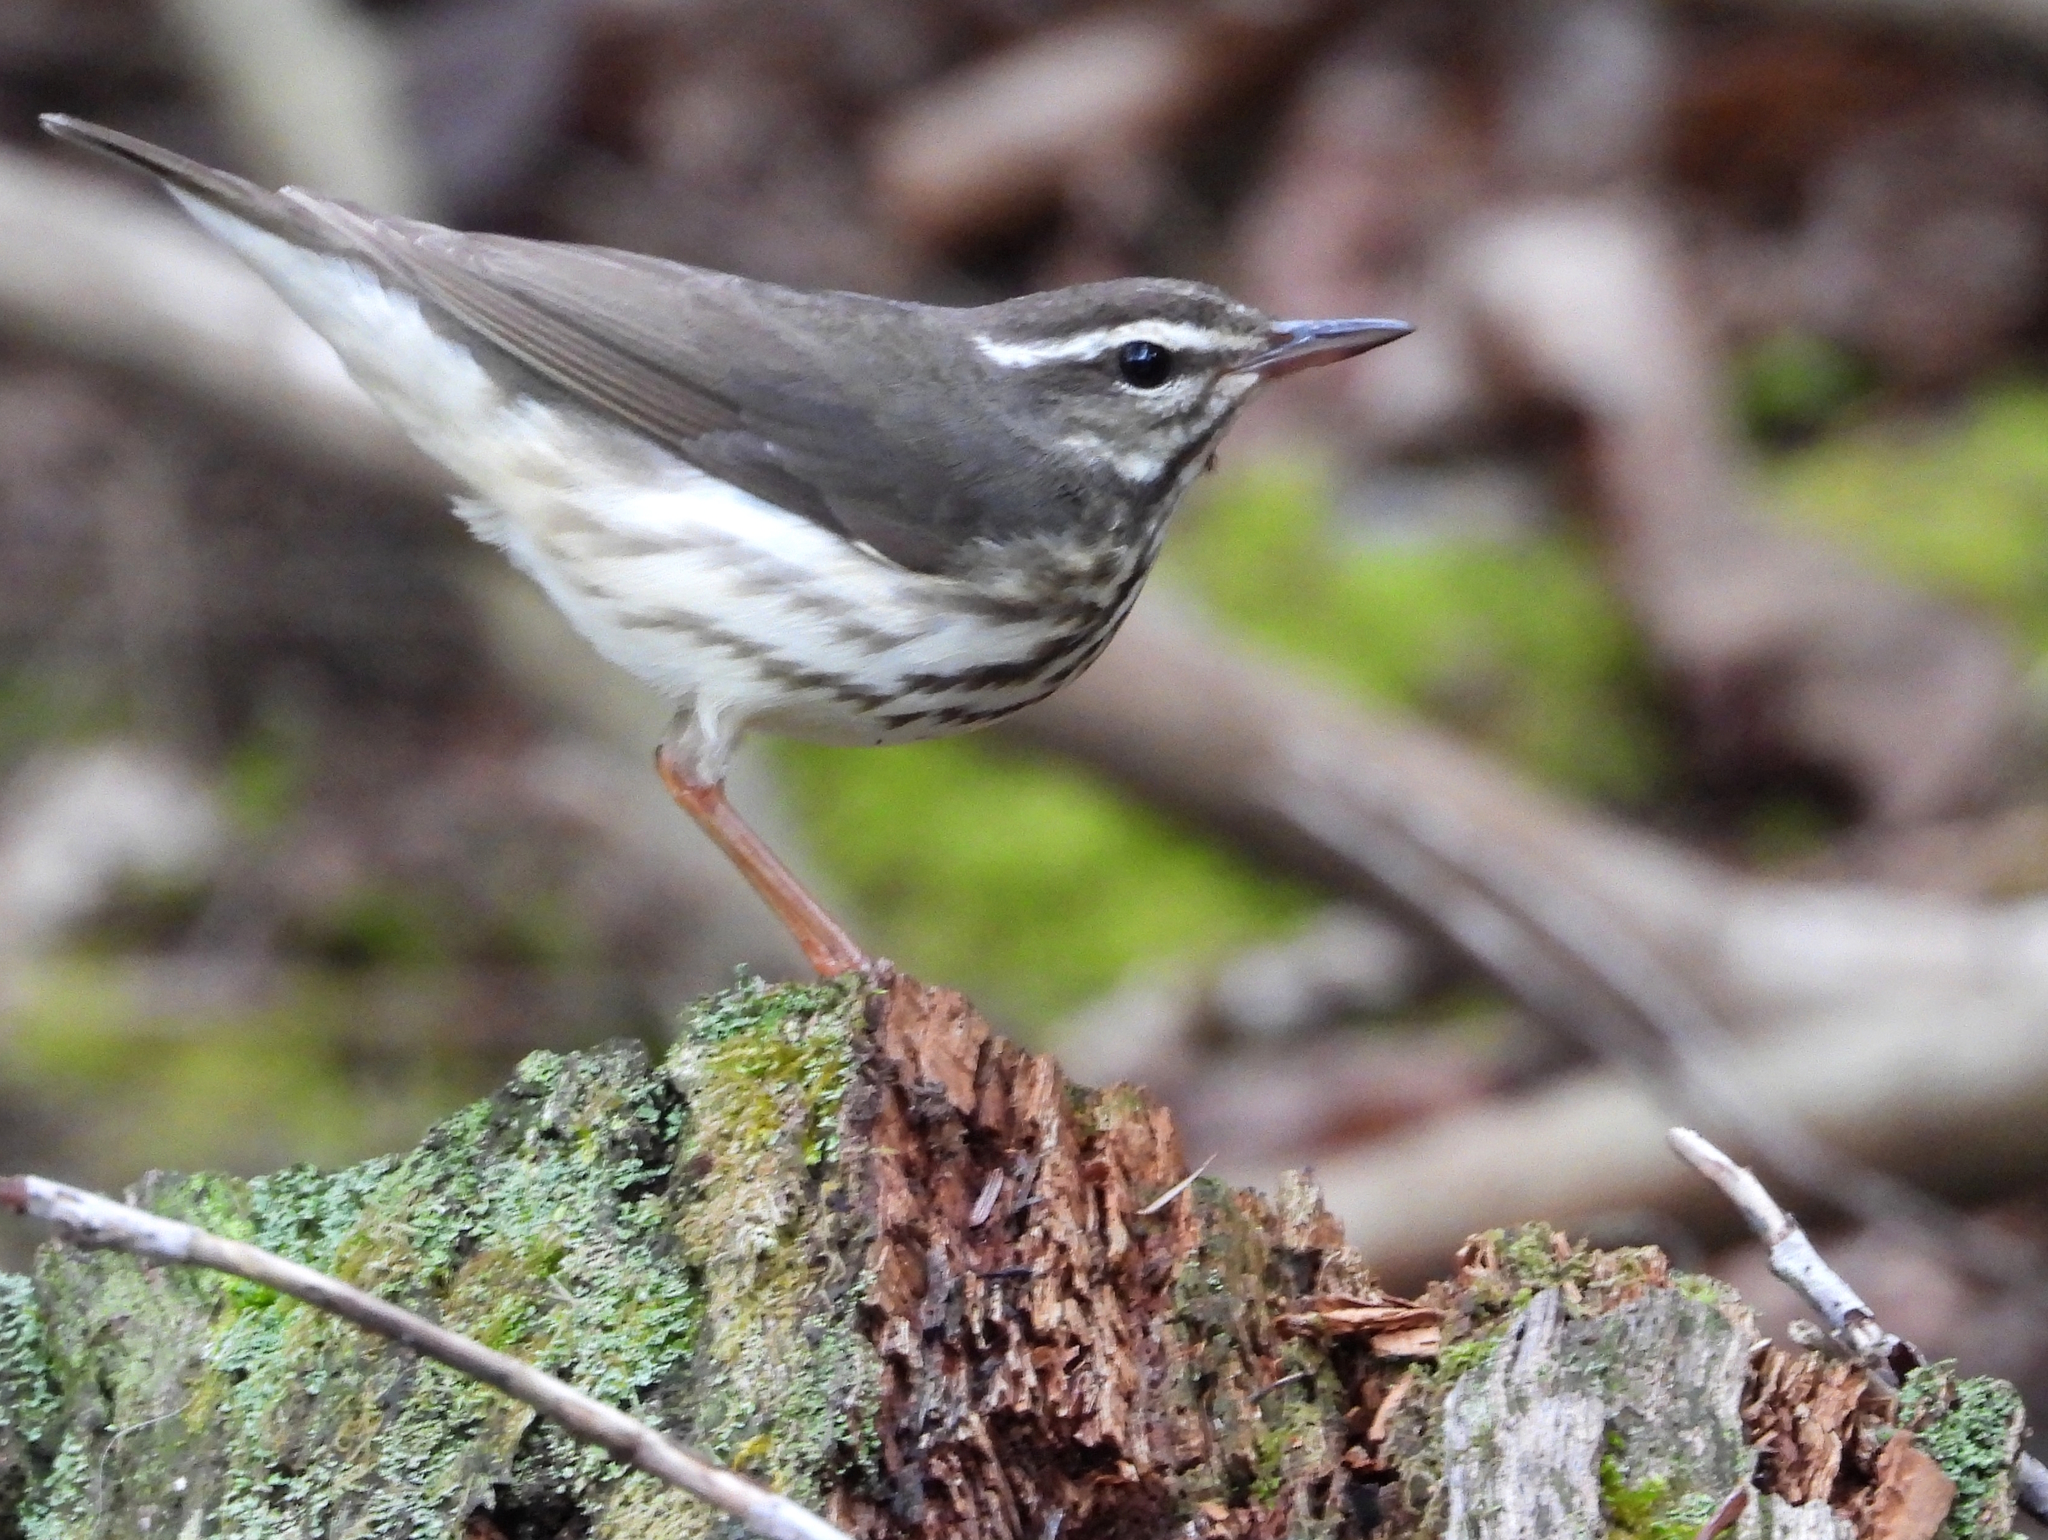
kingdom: Animalia
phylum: Chordata
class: Aves
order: Passeriformes
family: Parulidae
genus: Parkesia
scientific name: Parkesia motacilla
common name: Louisiana waterthrush
